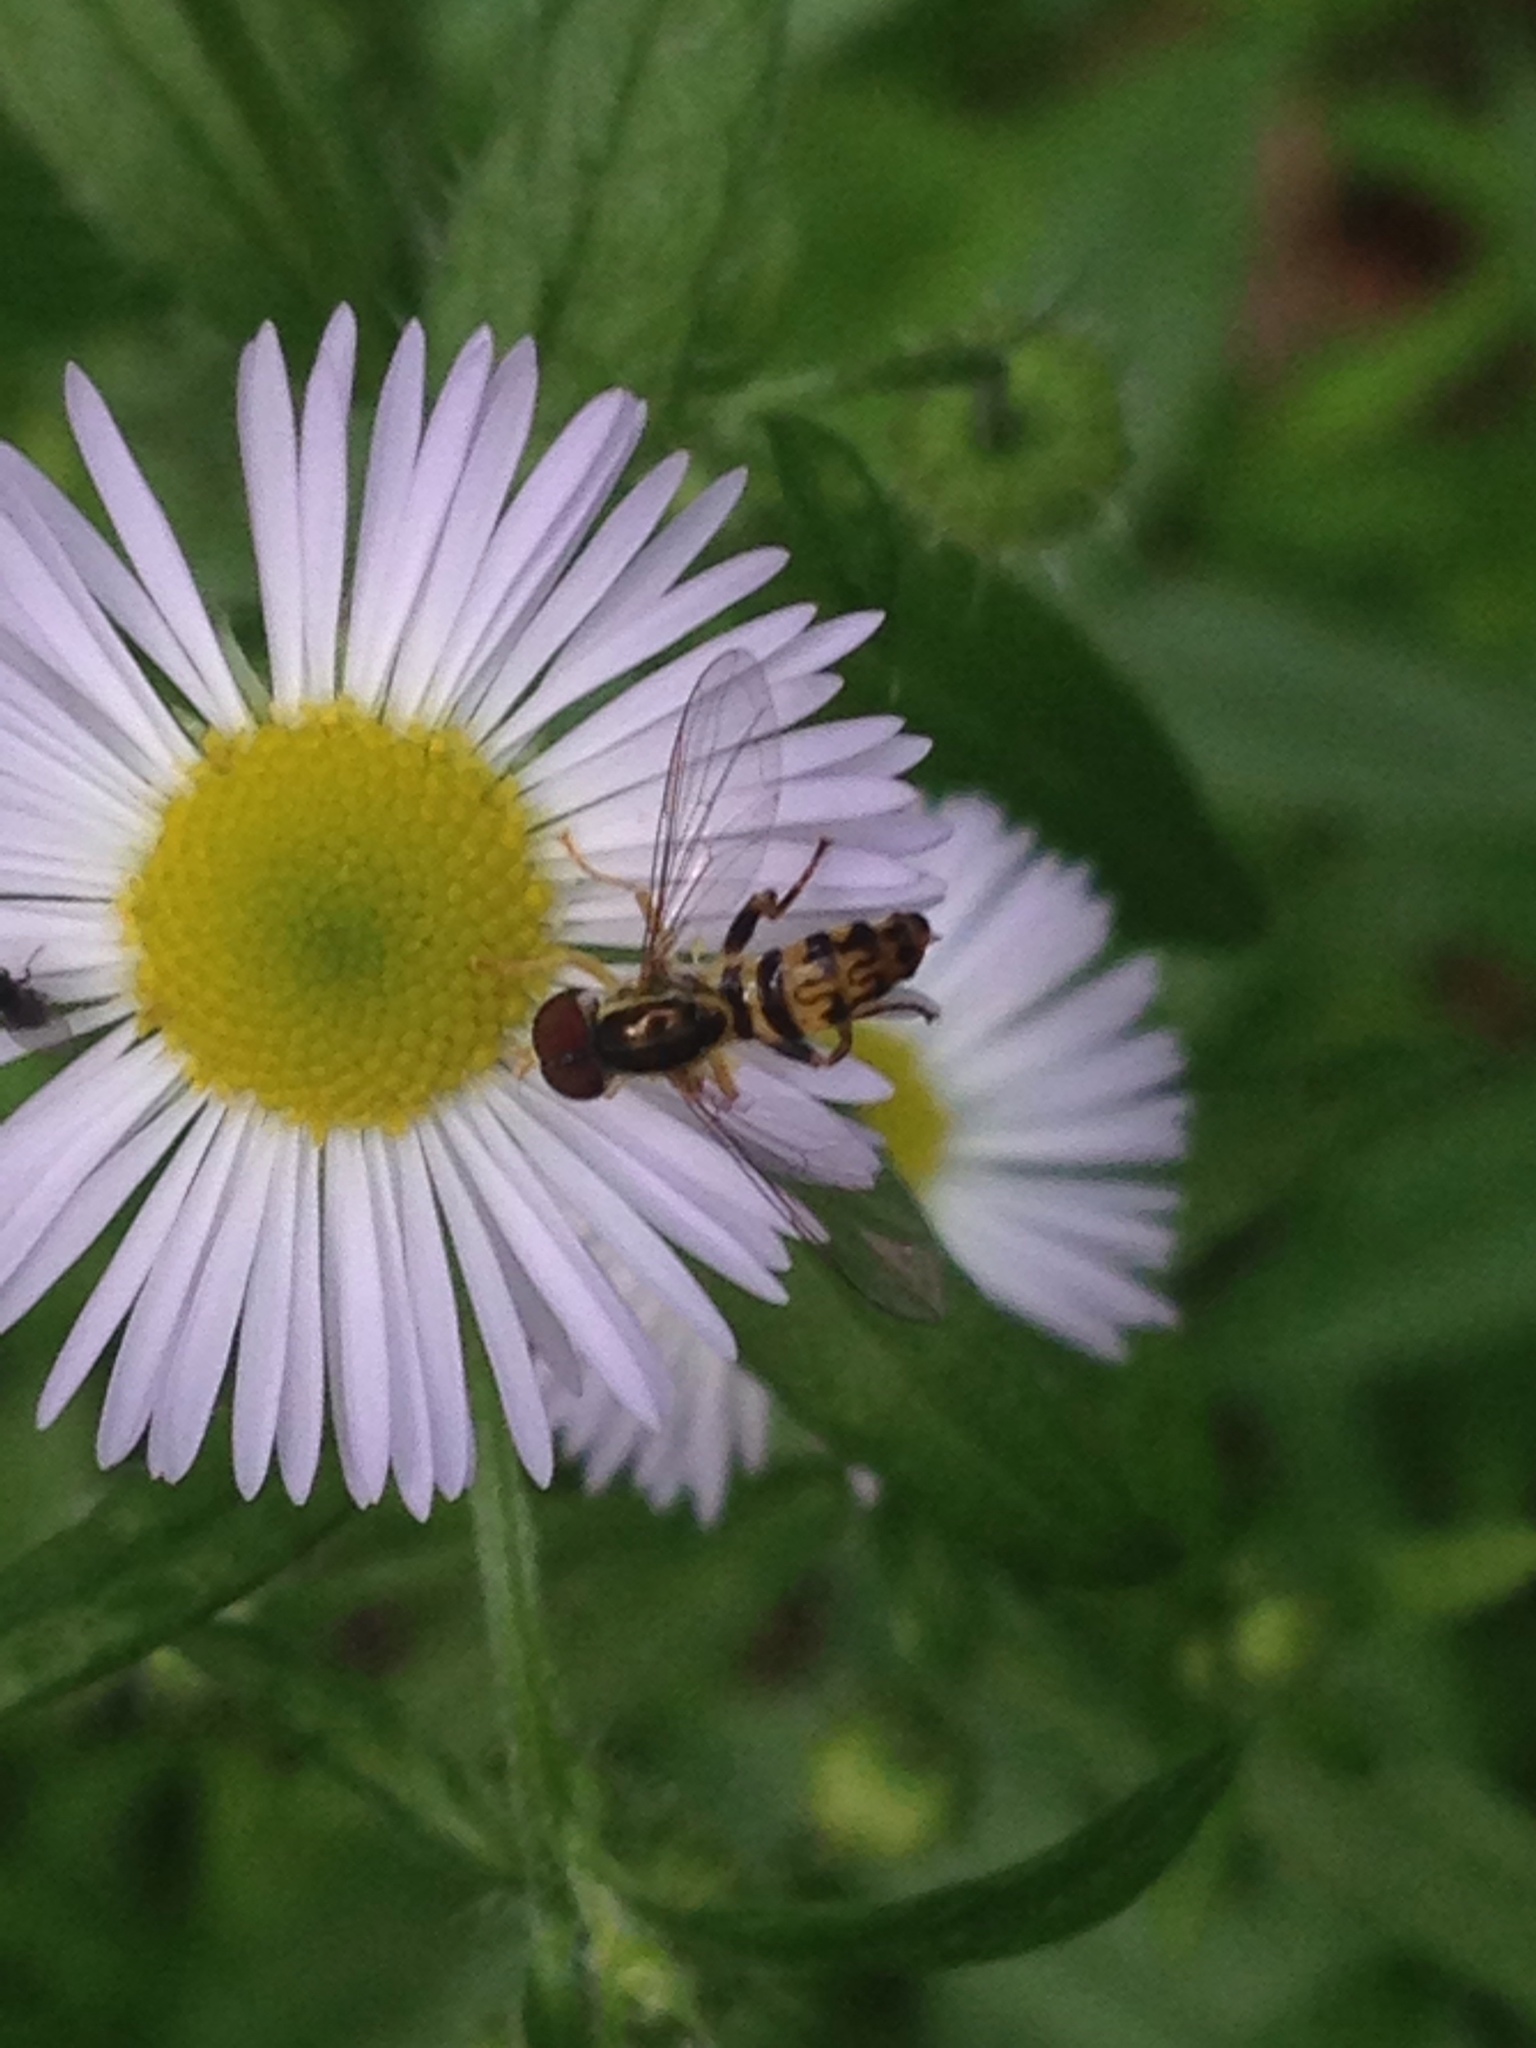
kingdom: Animalia
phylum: Arthropoda
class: Insecta
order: Diptera
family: Syrphidae
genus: Toxomerus
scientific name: Toxomerus geminatus
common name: Eastern calligrapher
